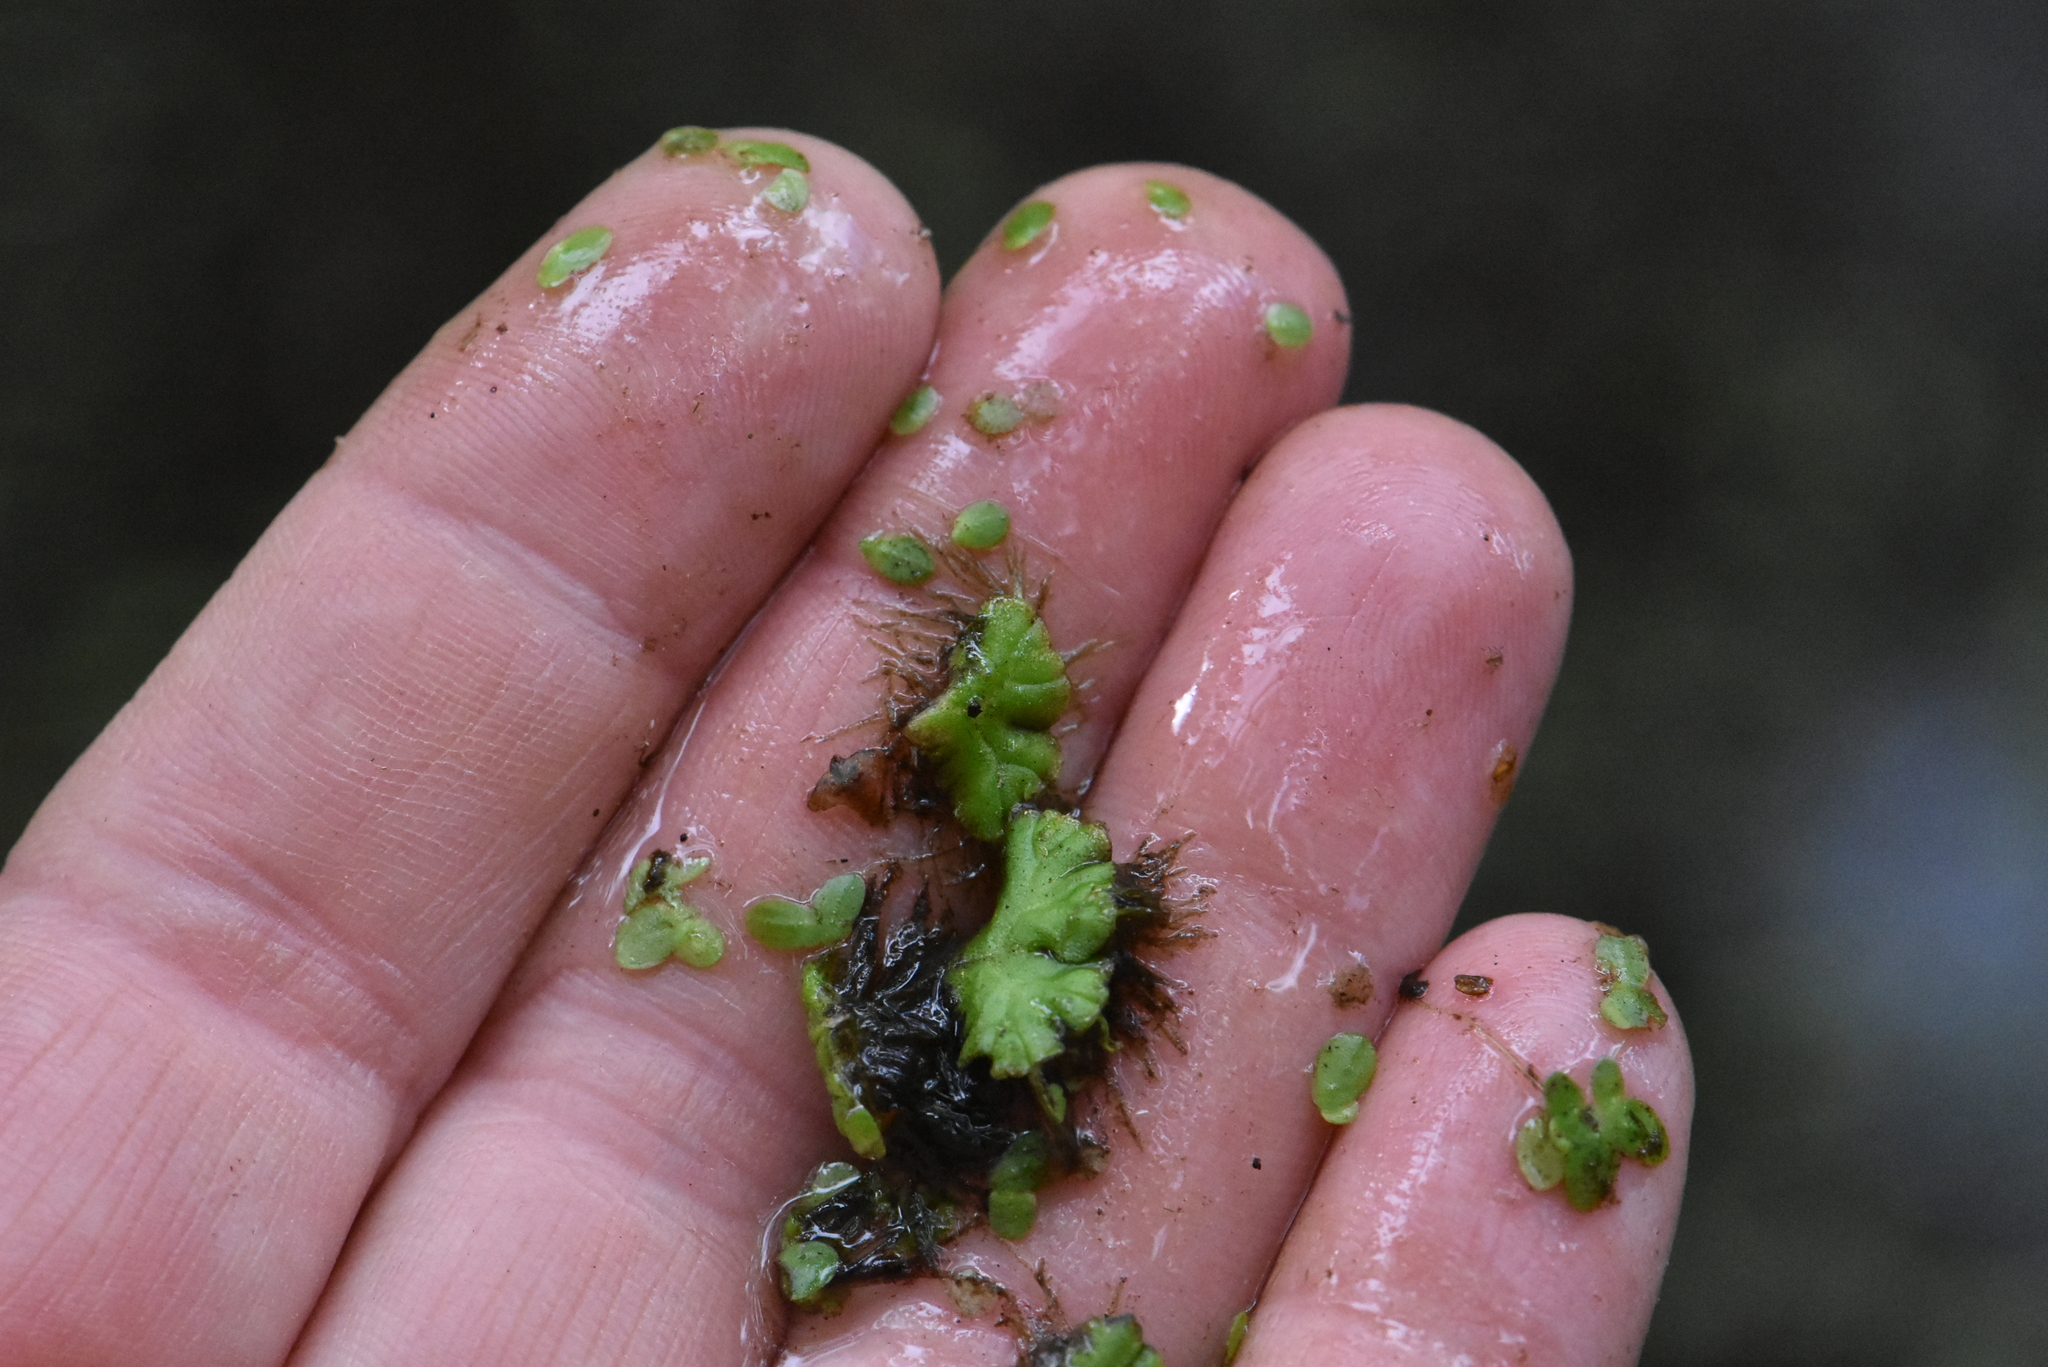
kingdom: Plantae
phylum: Marchantiophyta
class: Marchantiopsida
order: Marchantiales
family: Ricciaceae
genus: Ricciocarpos
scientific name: Ricciocarpos natans
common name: Purple-fringed liverwort
